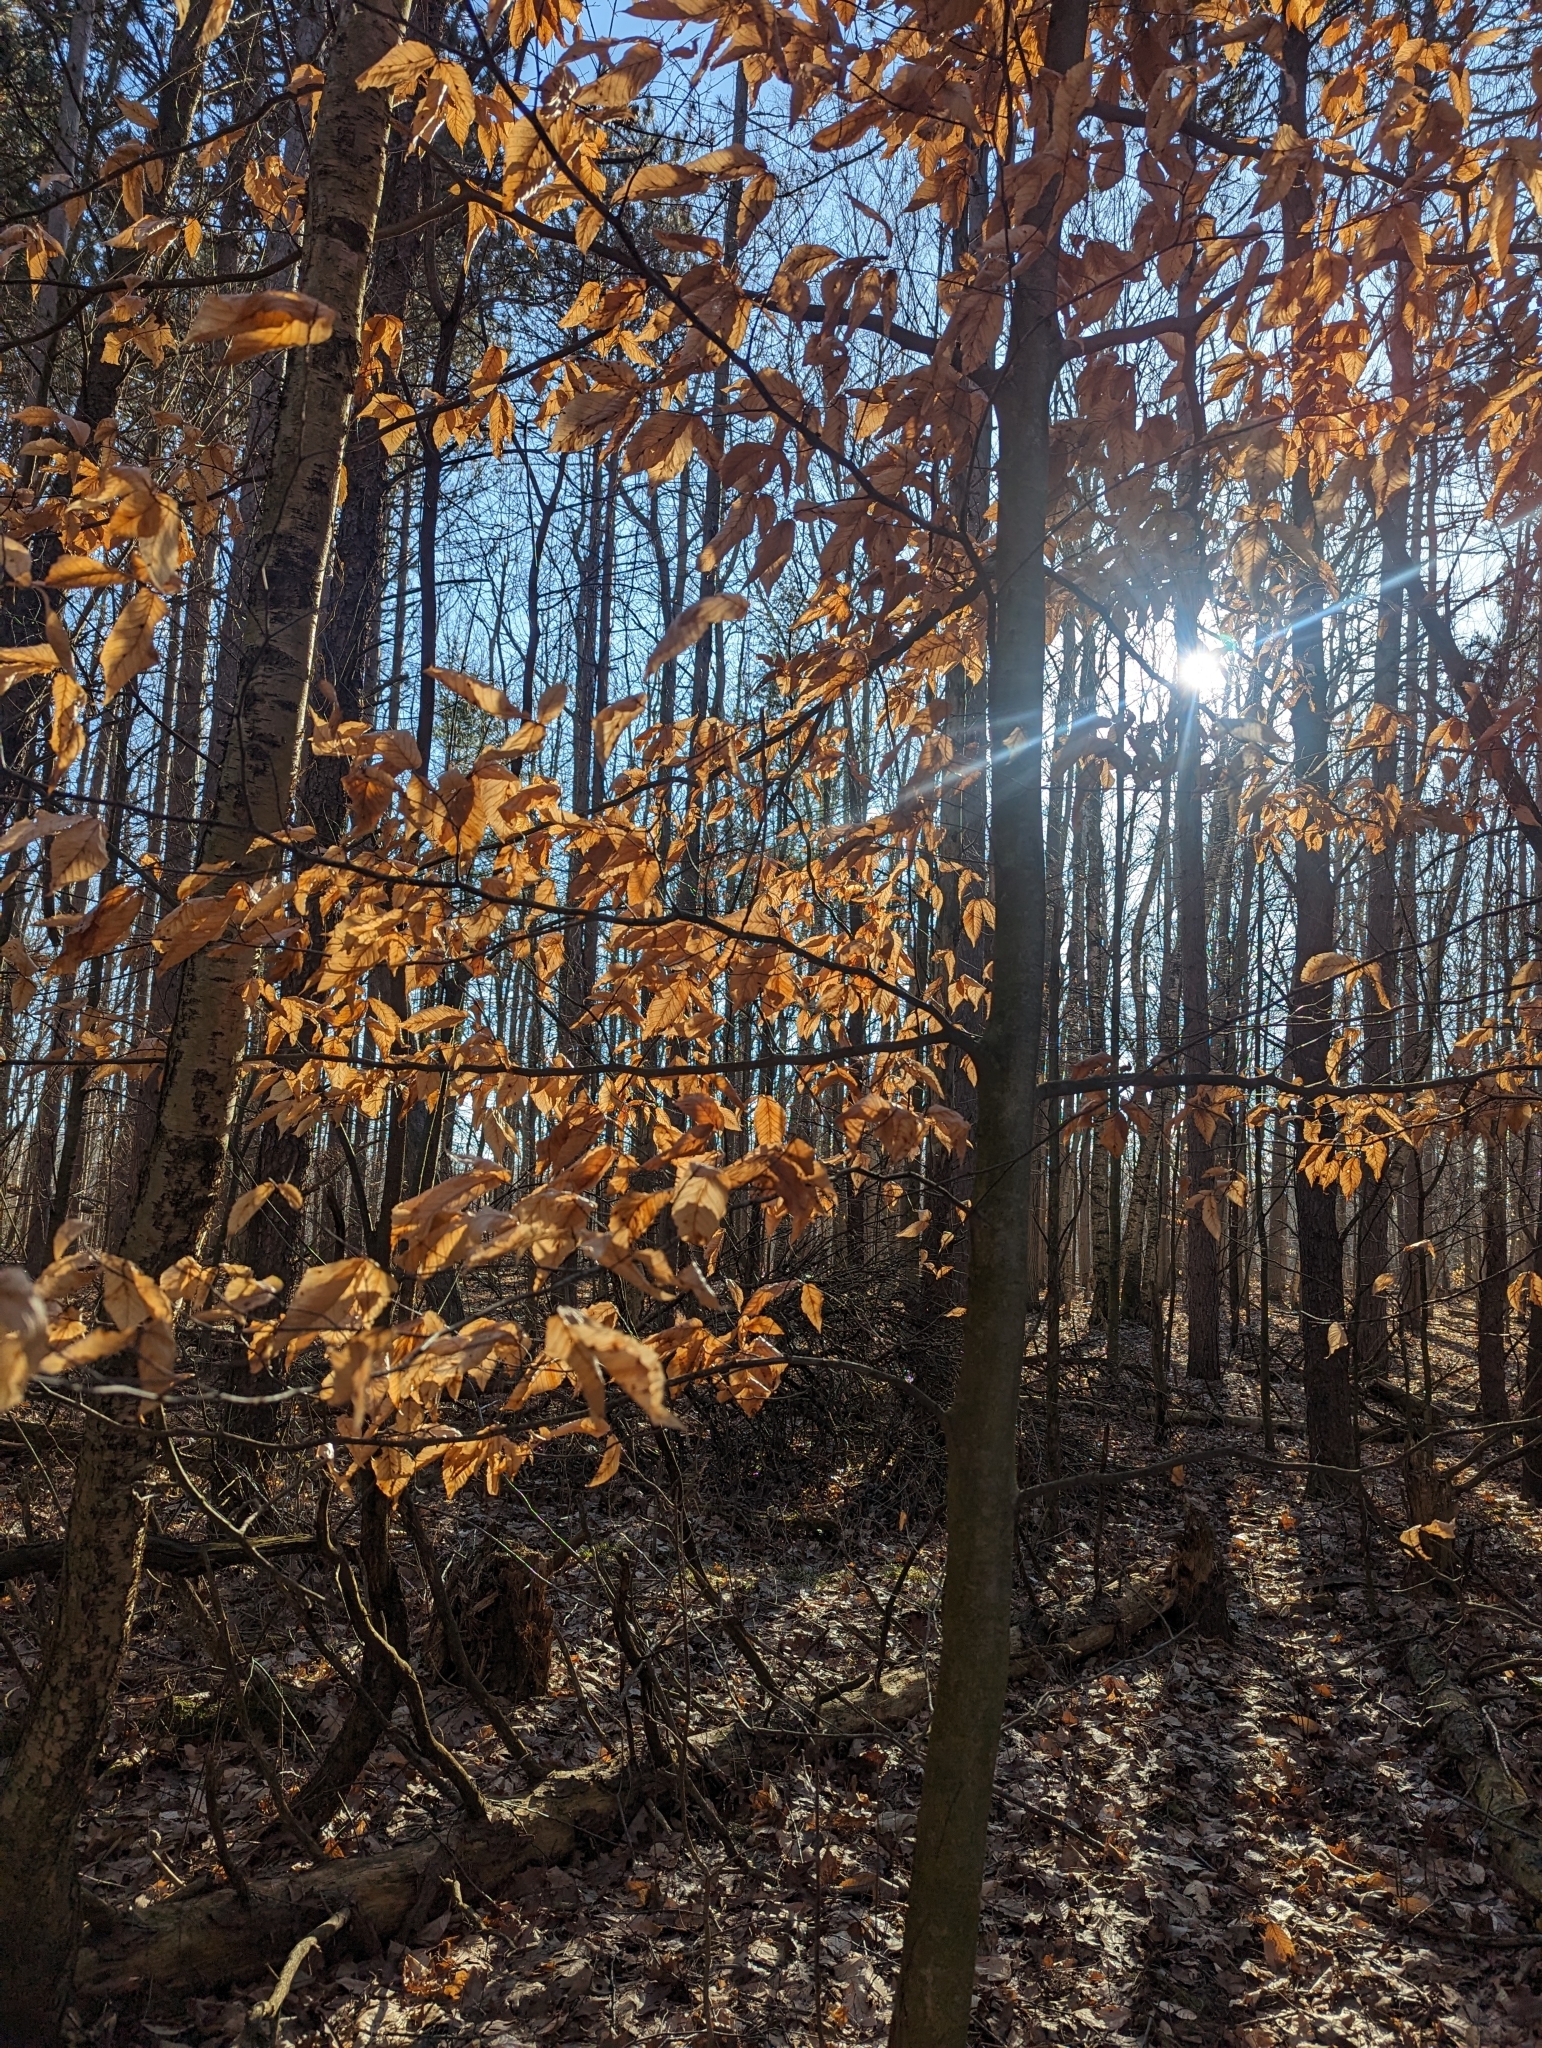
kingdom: Plantae
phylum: Tracheophyta
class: Magnoliopsida
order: Fagales
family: Fagaceae
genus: Fagus
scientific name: Fagus grandifolia
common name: American beech
